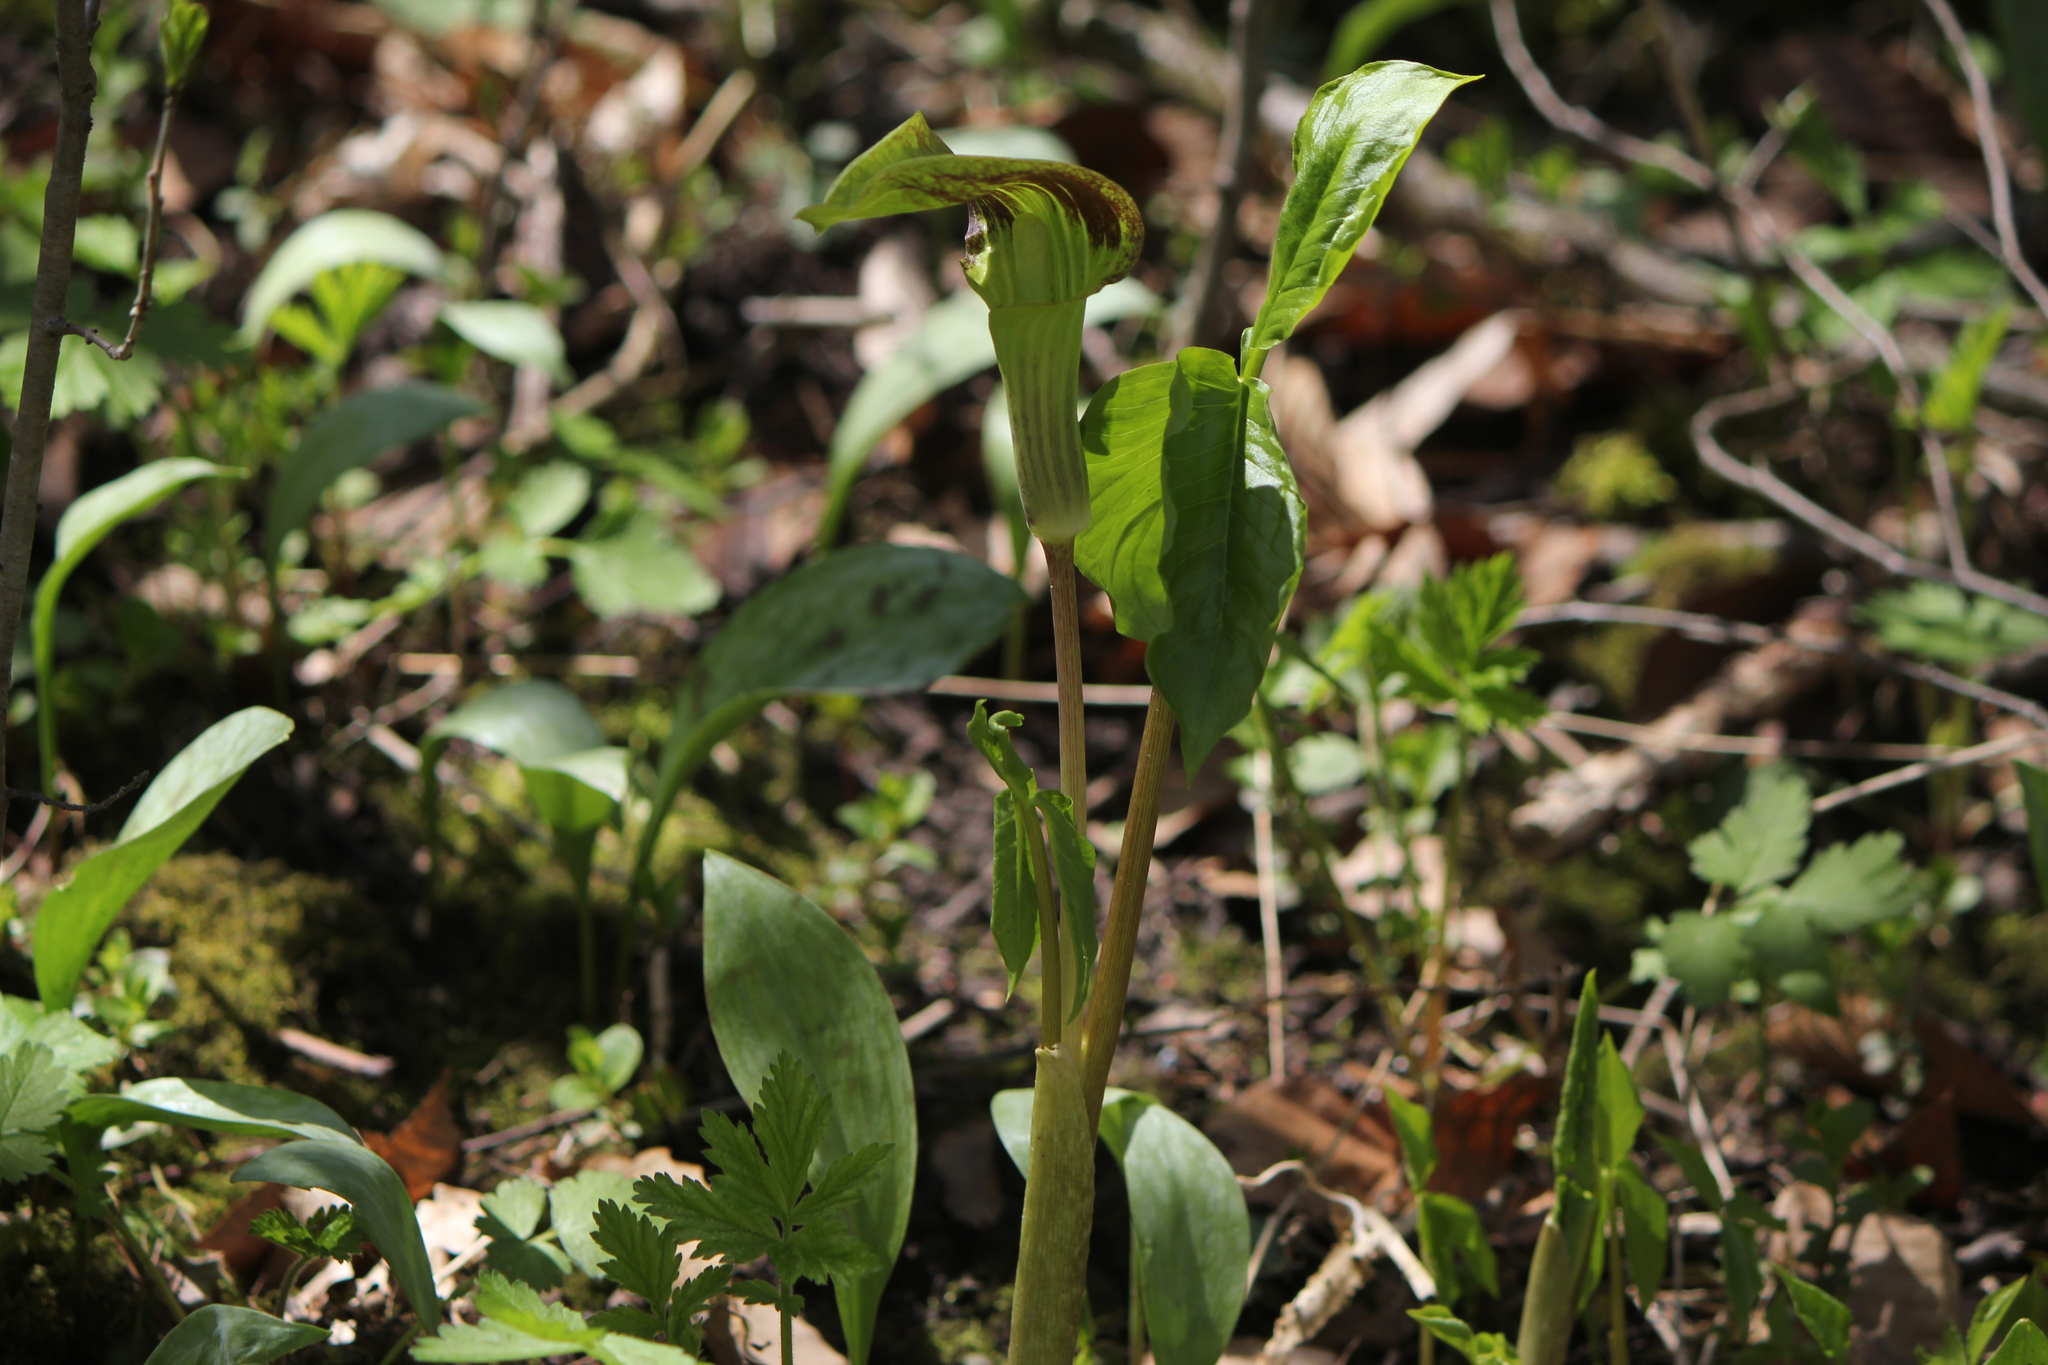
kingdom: Plantae
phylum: Tracheophyta
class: Liliopsida
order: Alismatales
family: Araceae
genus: Arisaema
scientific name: Arisaema triphyllum
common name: Jack-in-the-pulpit
